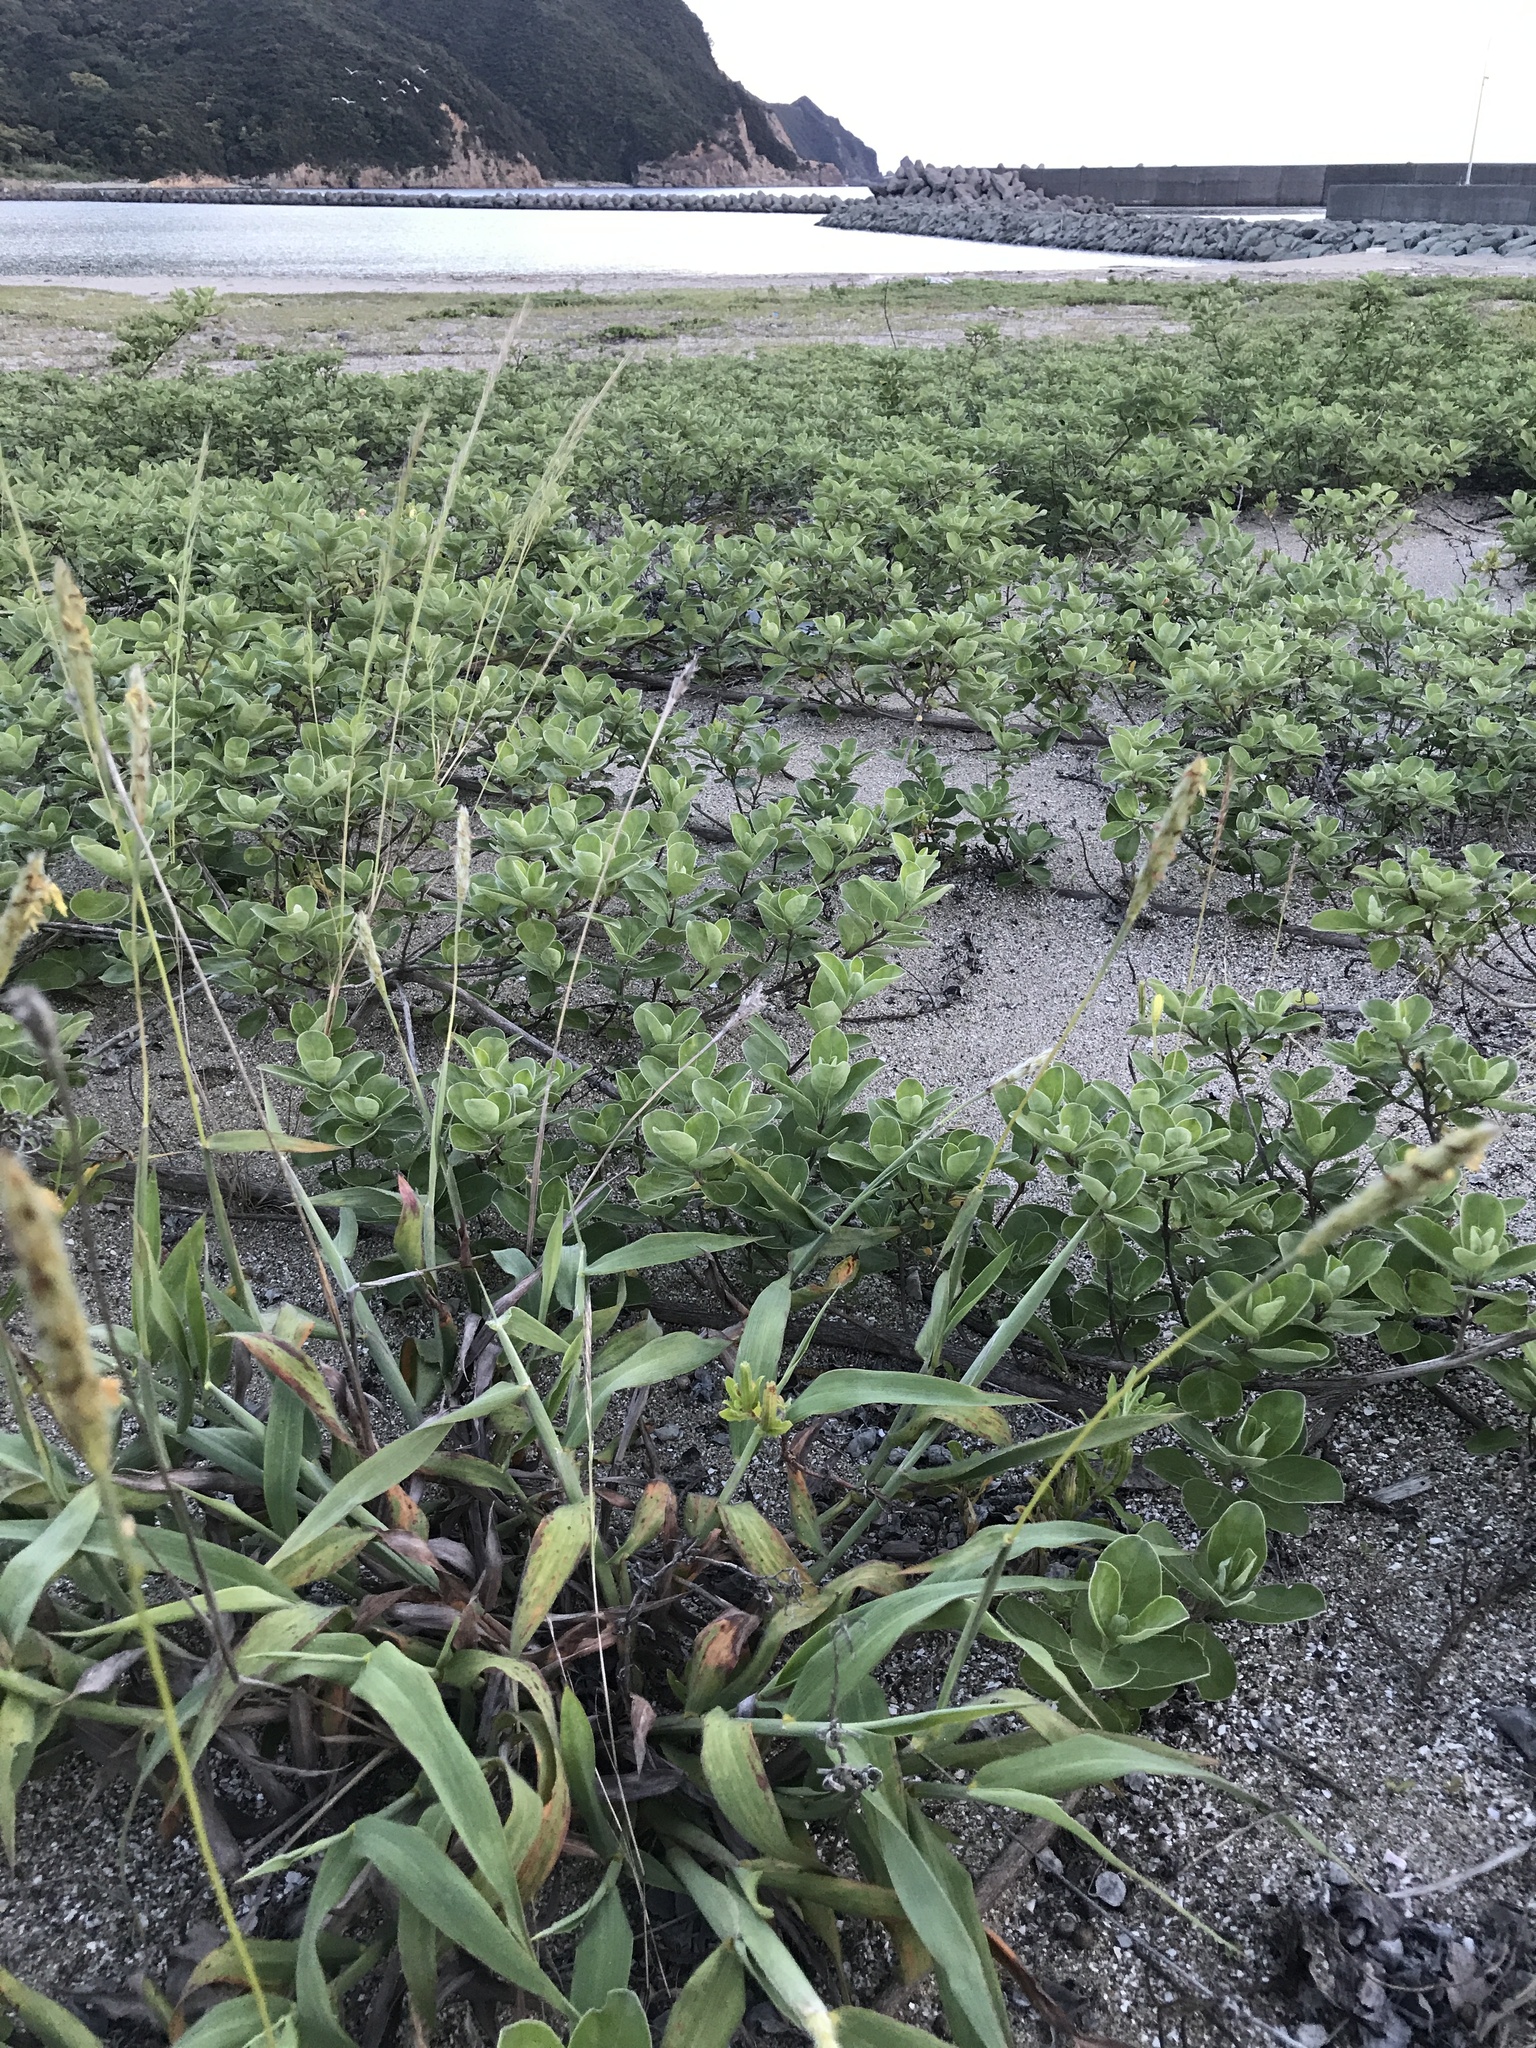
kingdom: Plantae
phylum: Tracheophyta
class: Liliopsida
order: Poales
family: Poaceae
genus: Ischaemum
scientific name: Ischaemum anthephoroides
